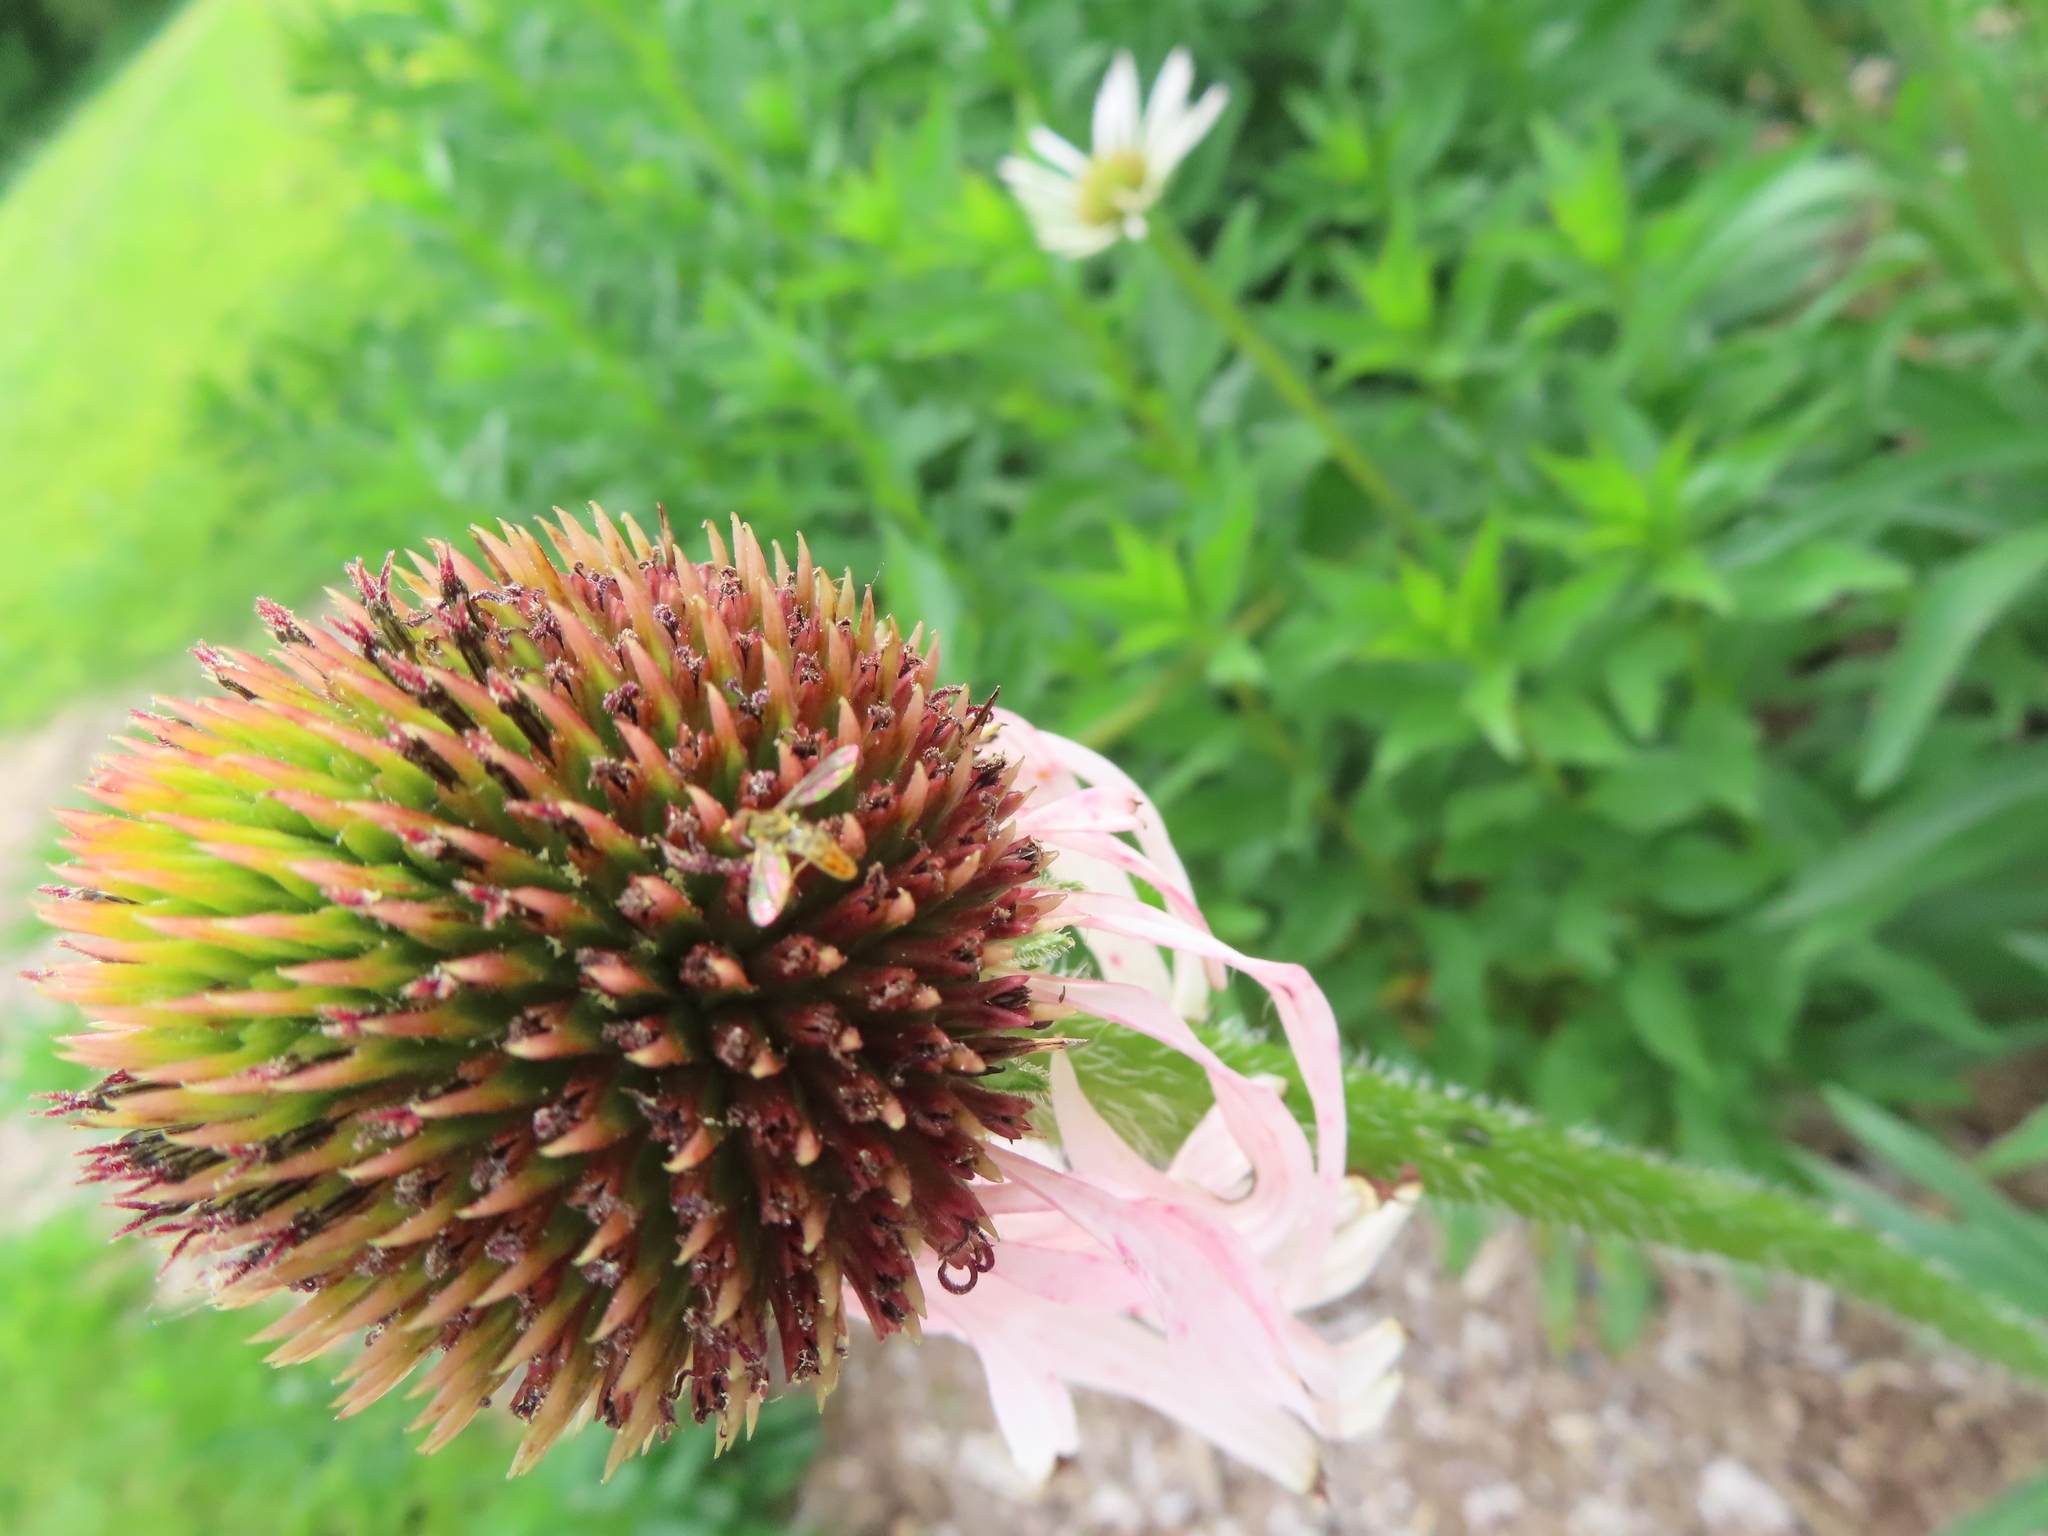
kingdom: Animalia
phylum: Arthropoda
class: Insecta
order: Diptera
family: Syrphidae
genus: Toxomerus
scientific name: Toxomerus marginatus
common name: Syrphid fly
